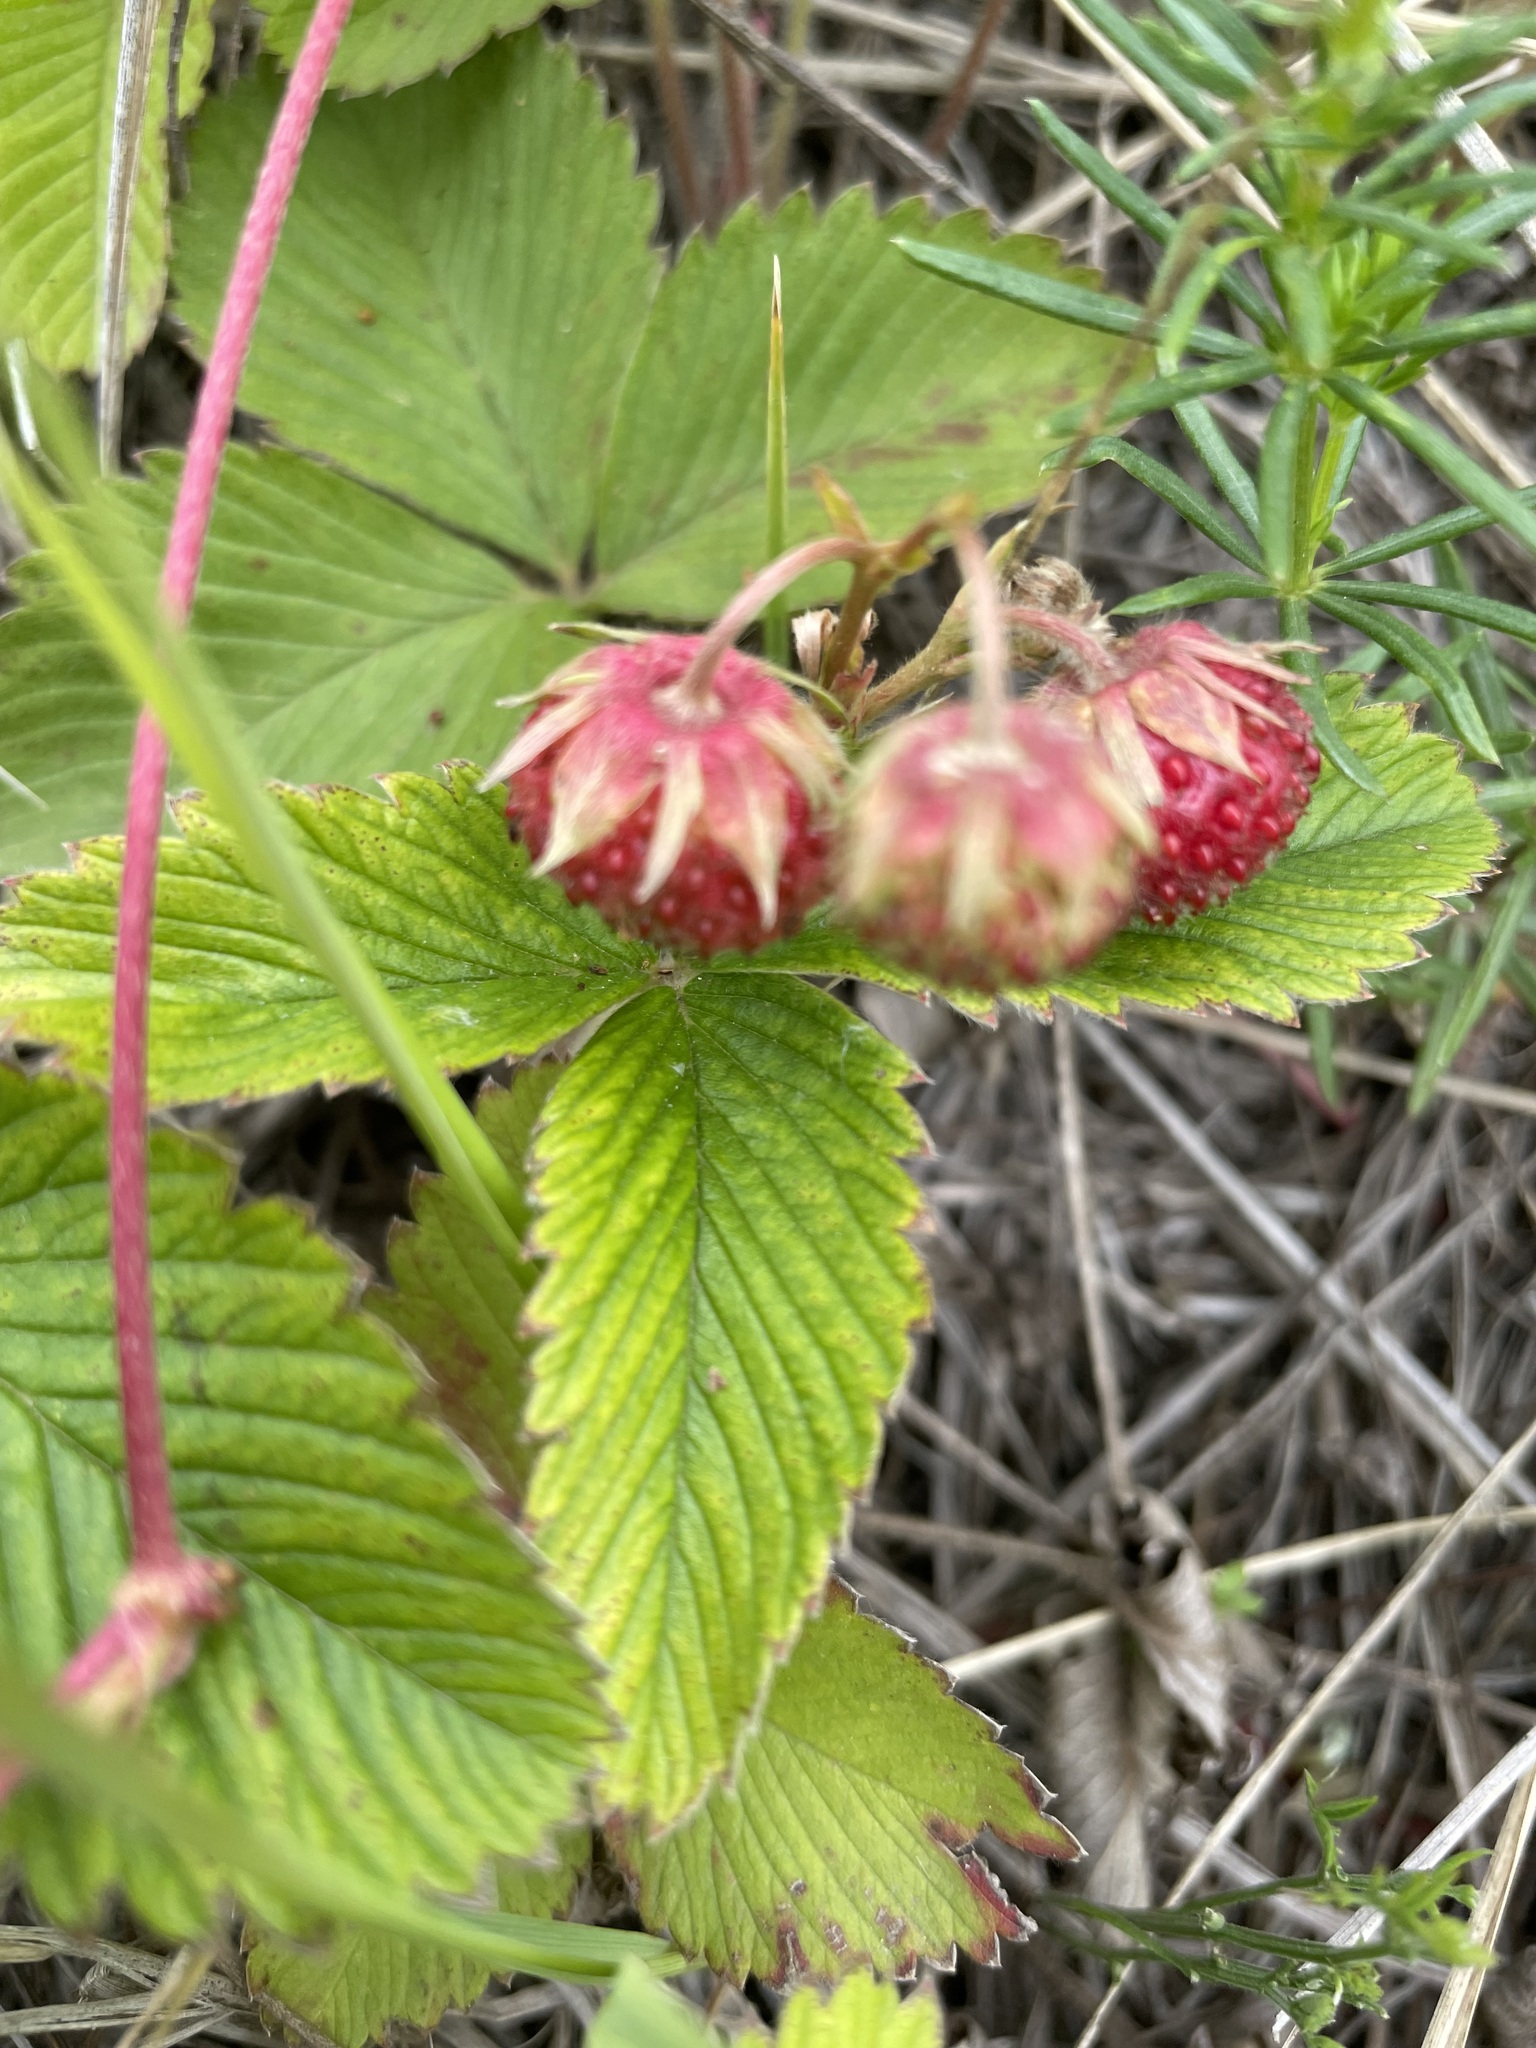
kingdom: Plantae
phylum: Tracheophyta
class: Magnoliopsida
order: Rosales
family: Rosaceae
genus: Fragaria
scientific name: Fragaria viridis
